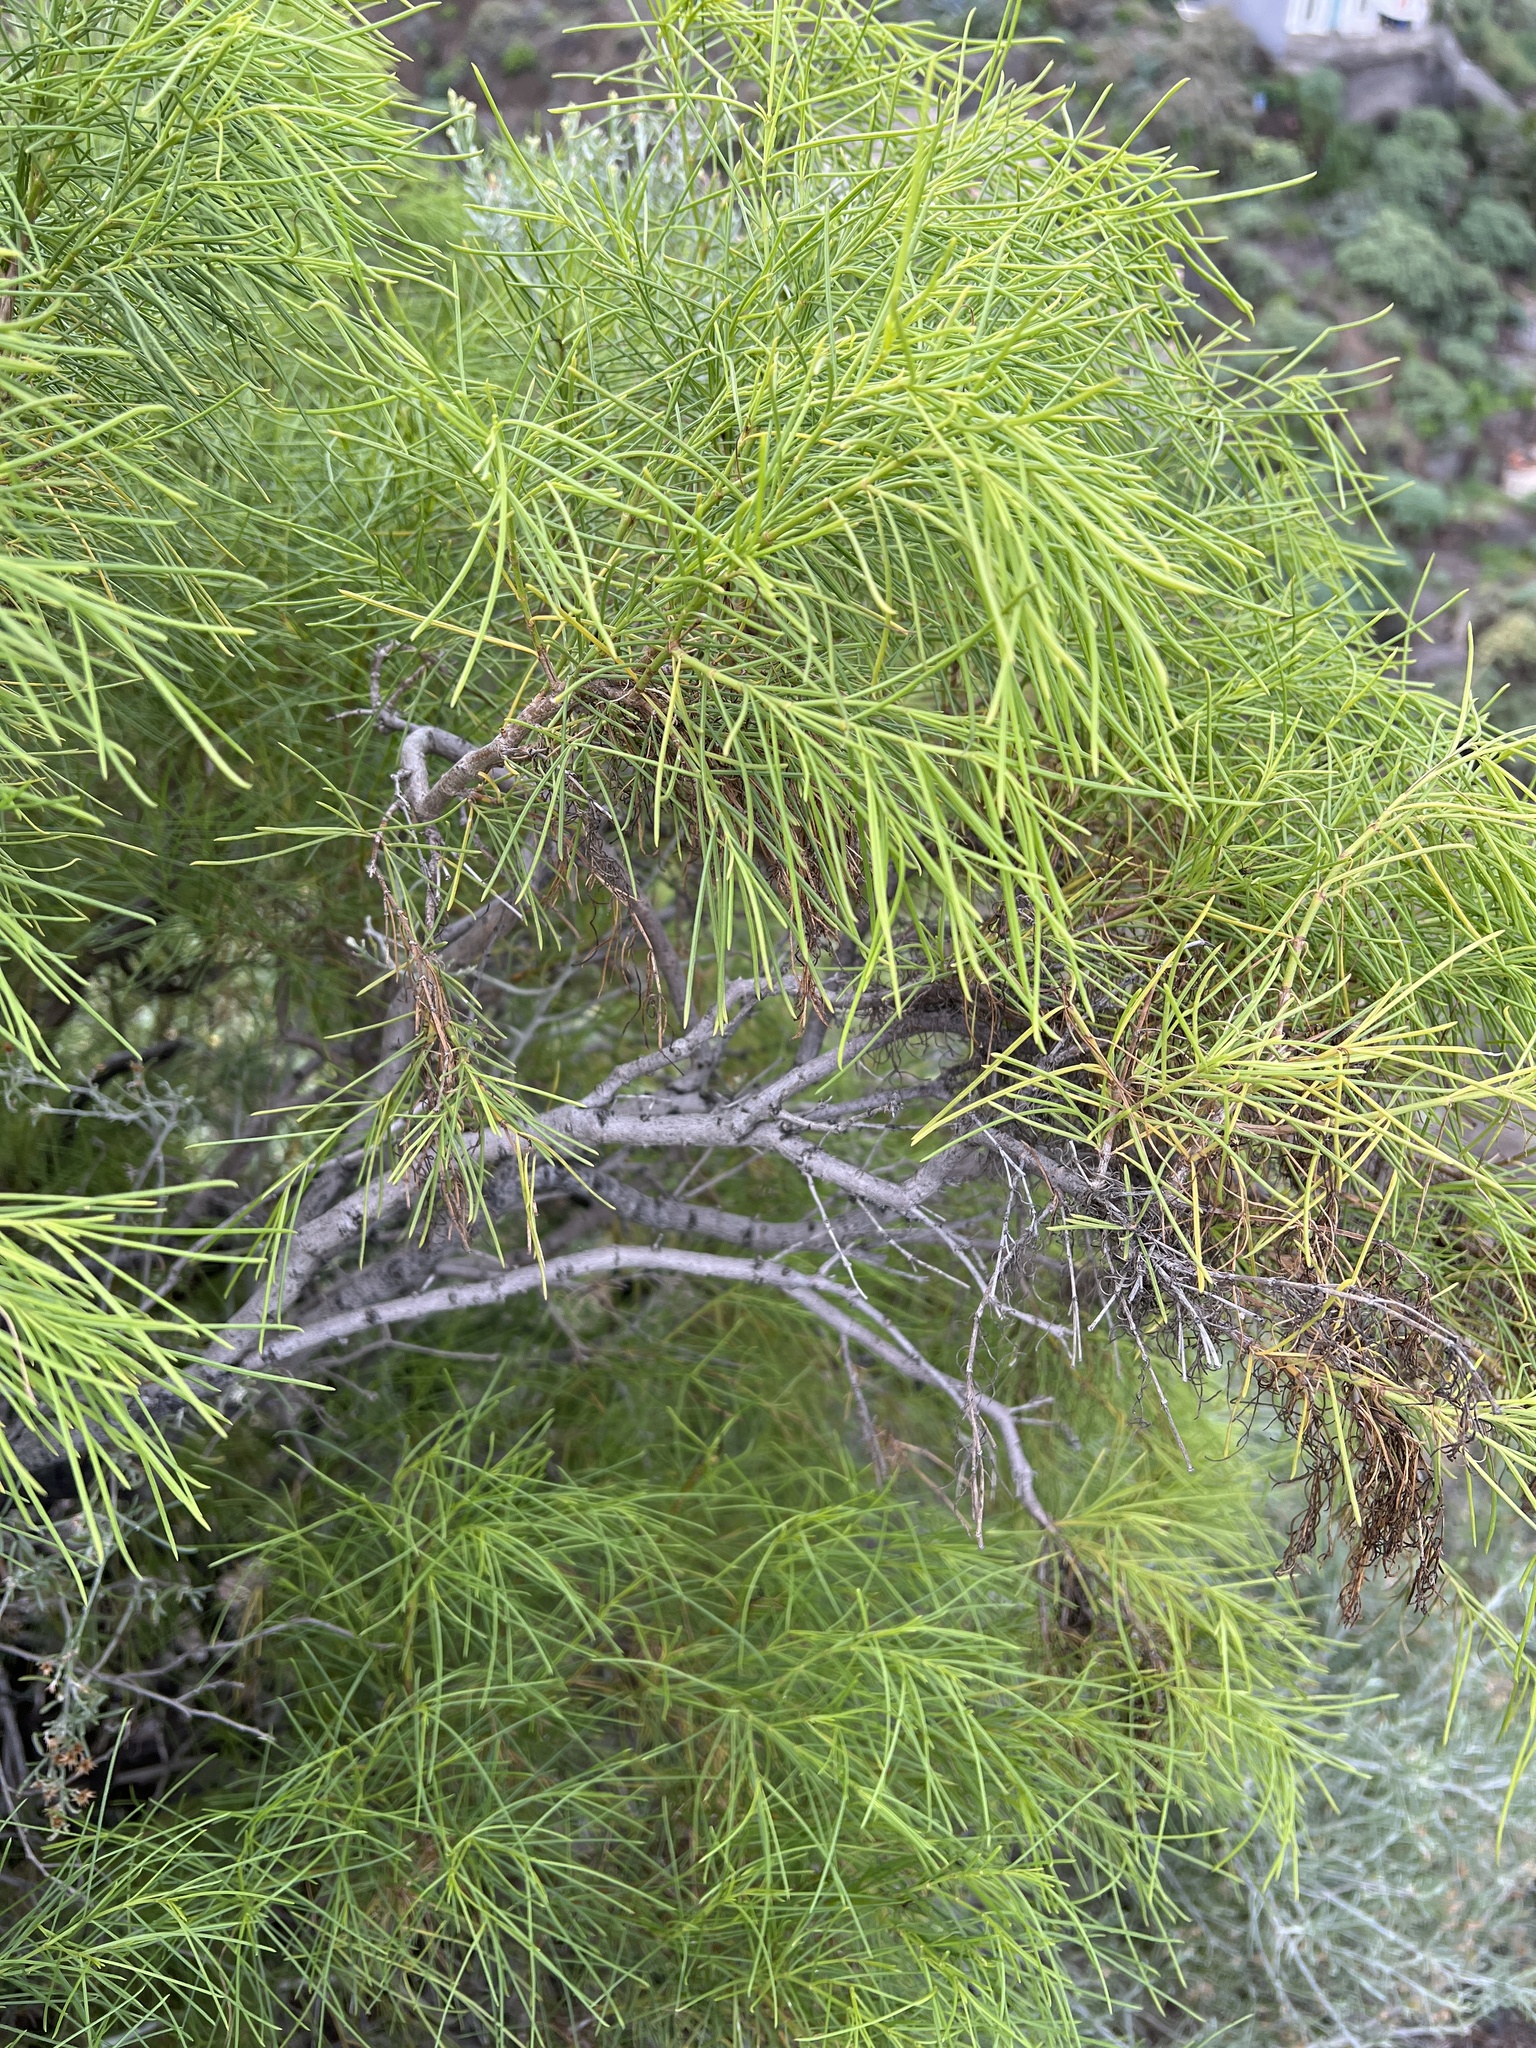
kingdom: Plantae
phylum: Tracheophyta
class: Magnoliopsida
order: Gentianales
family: Rubiaceae
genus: Plocama
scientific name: Plocama pendula
